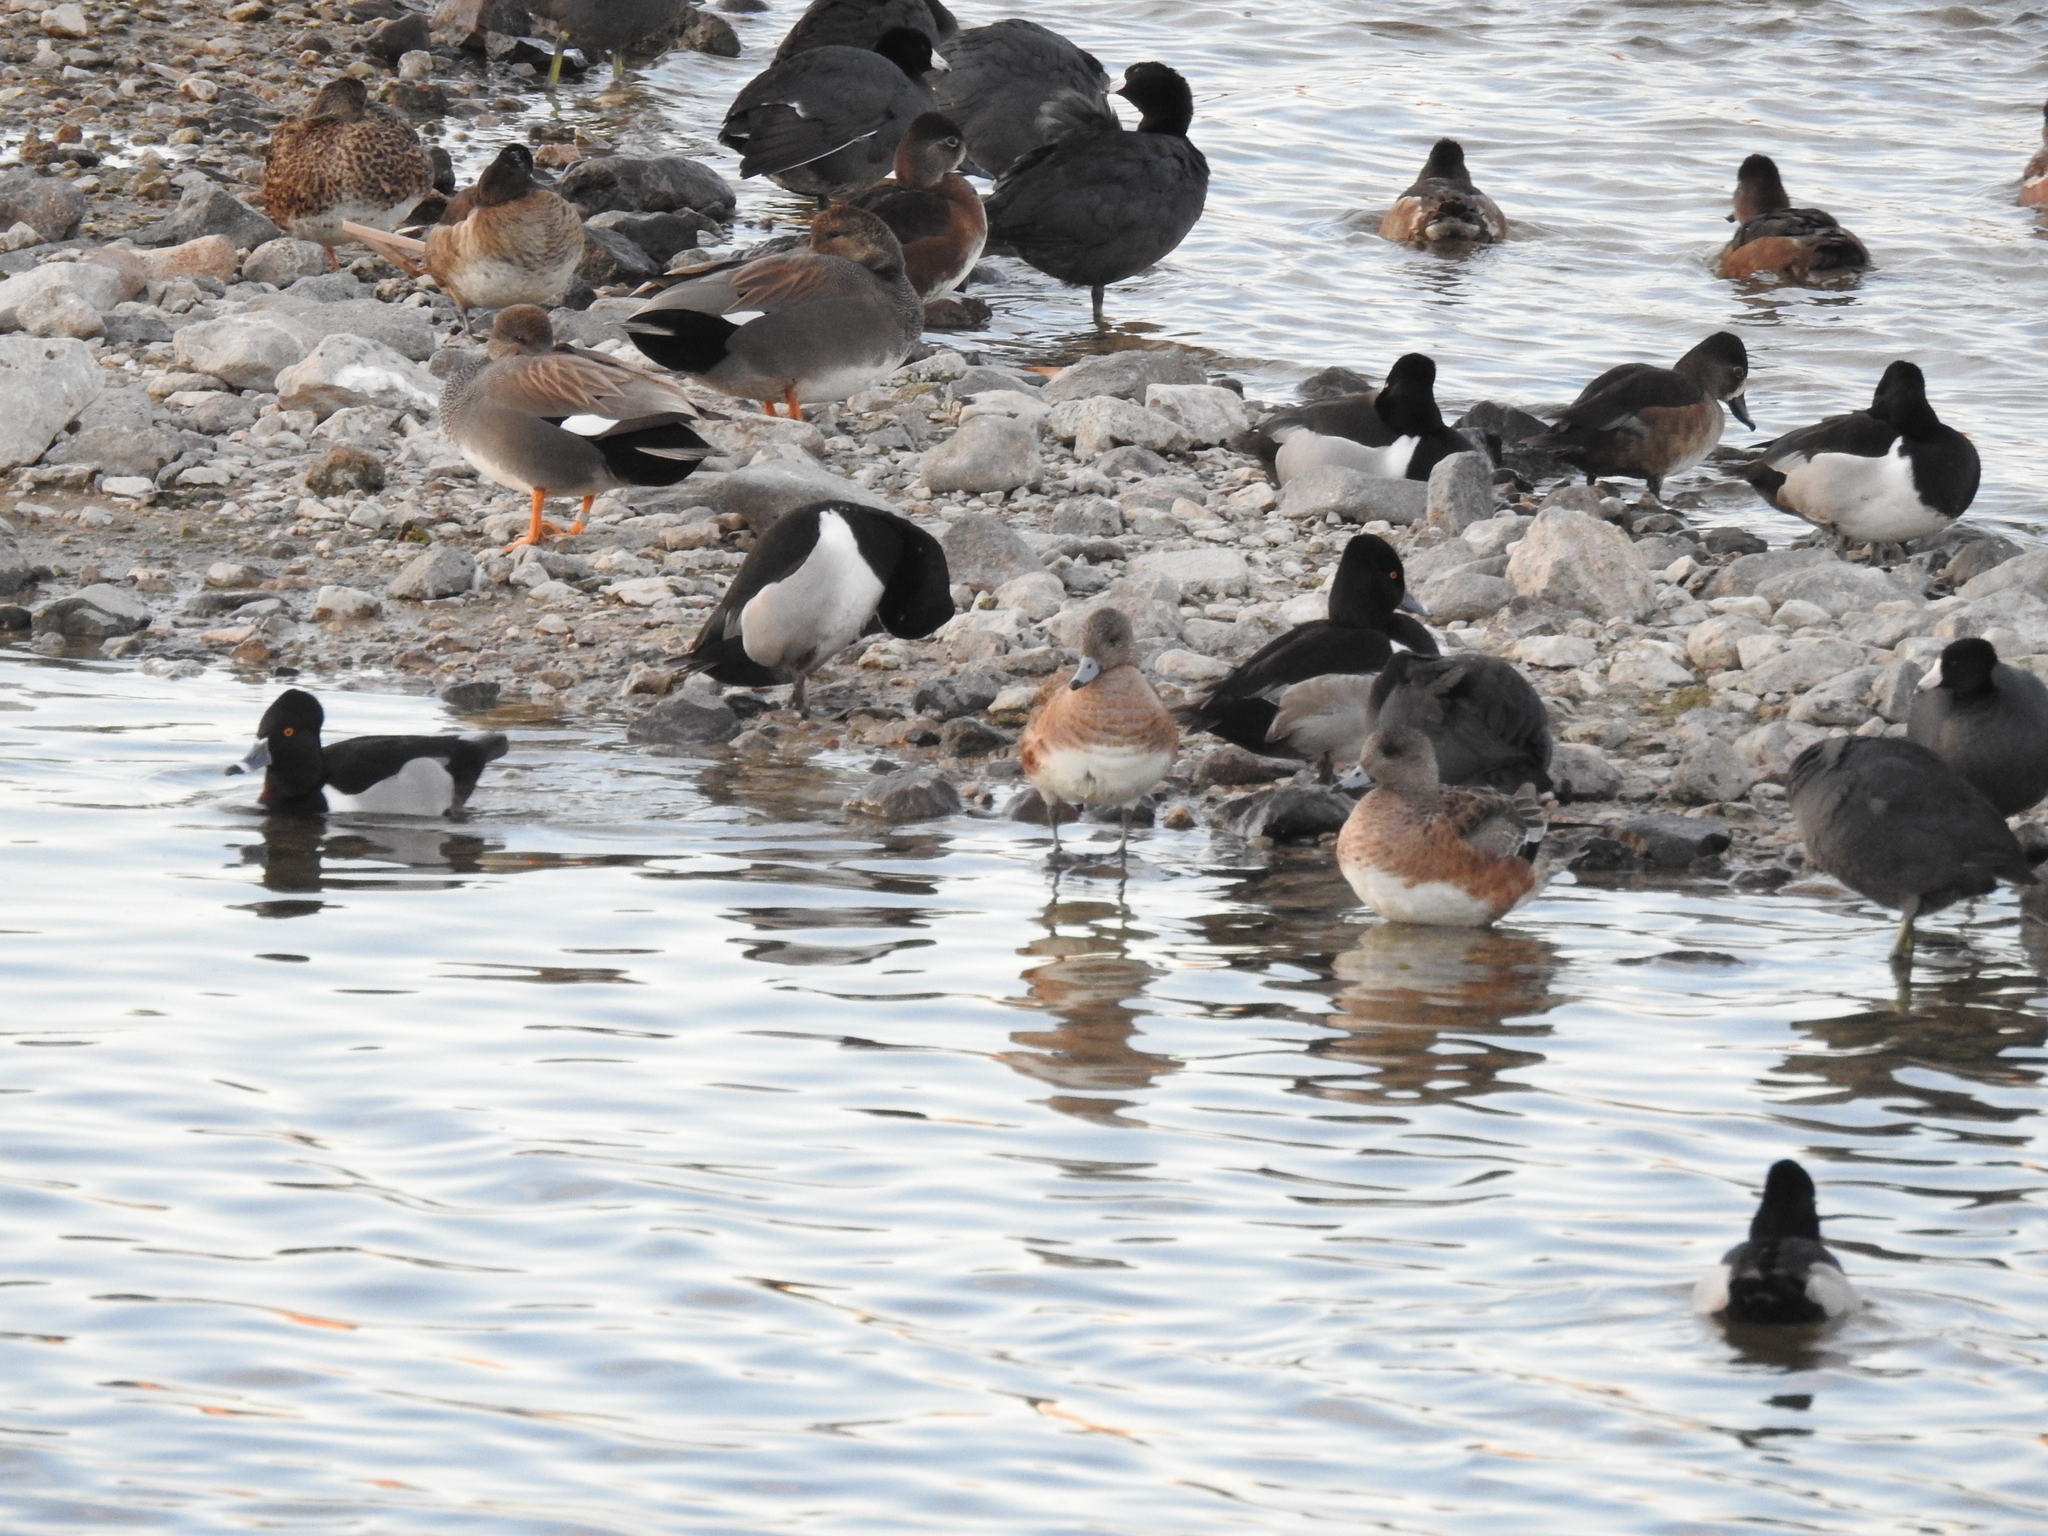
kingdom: Animalia
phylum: Chordata
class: Aves
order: Anseriformes
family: Anatidae
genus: Aythya
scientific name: Aythya collaris
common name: Ring-necked duck
